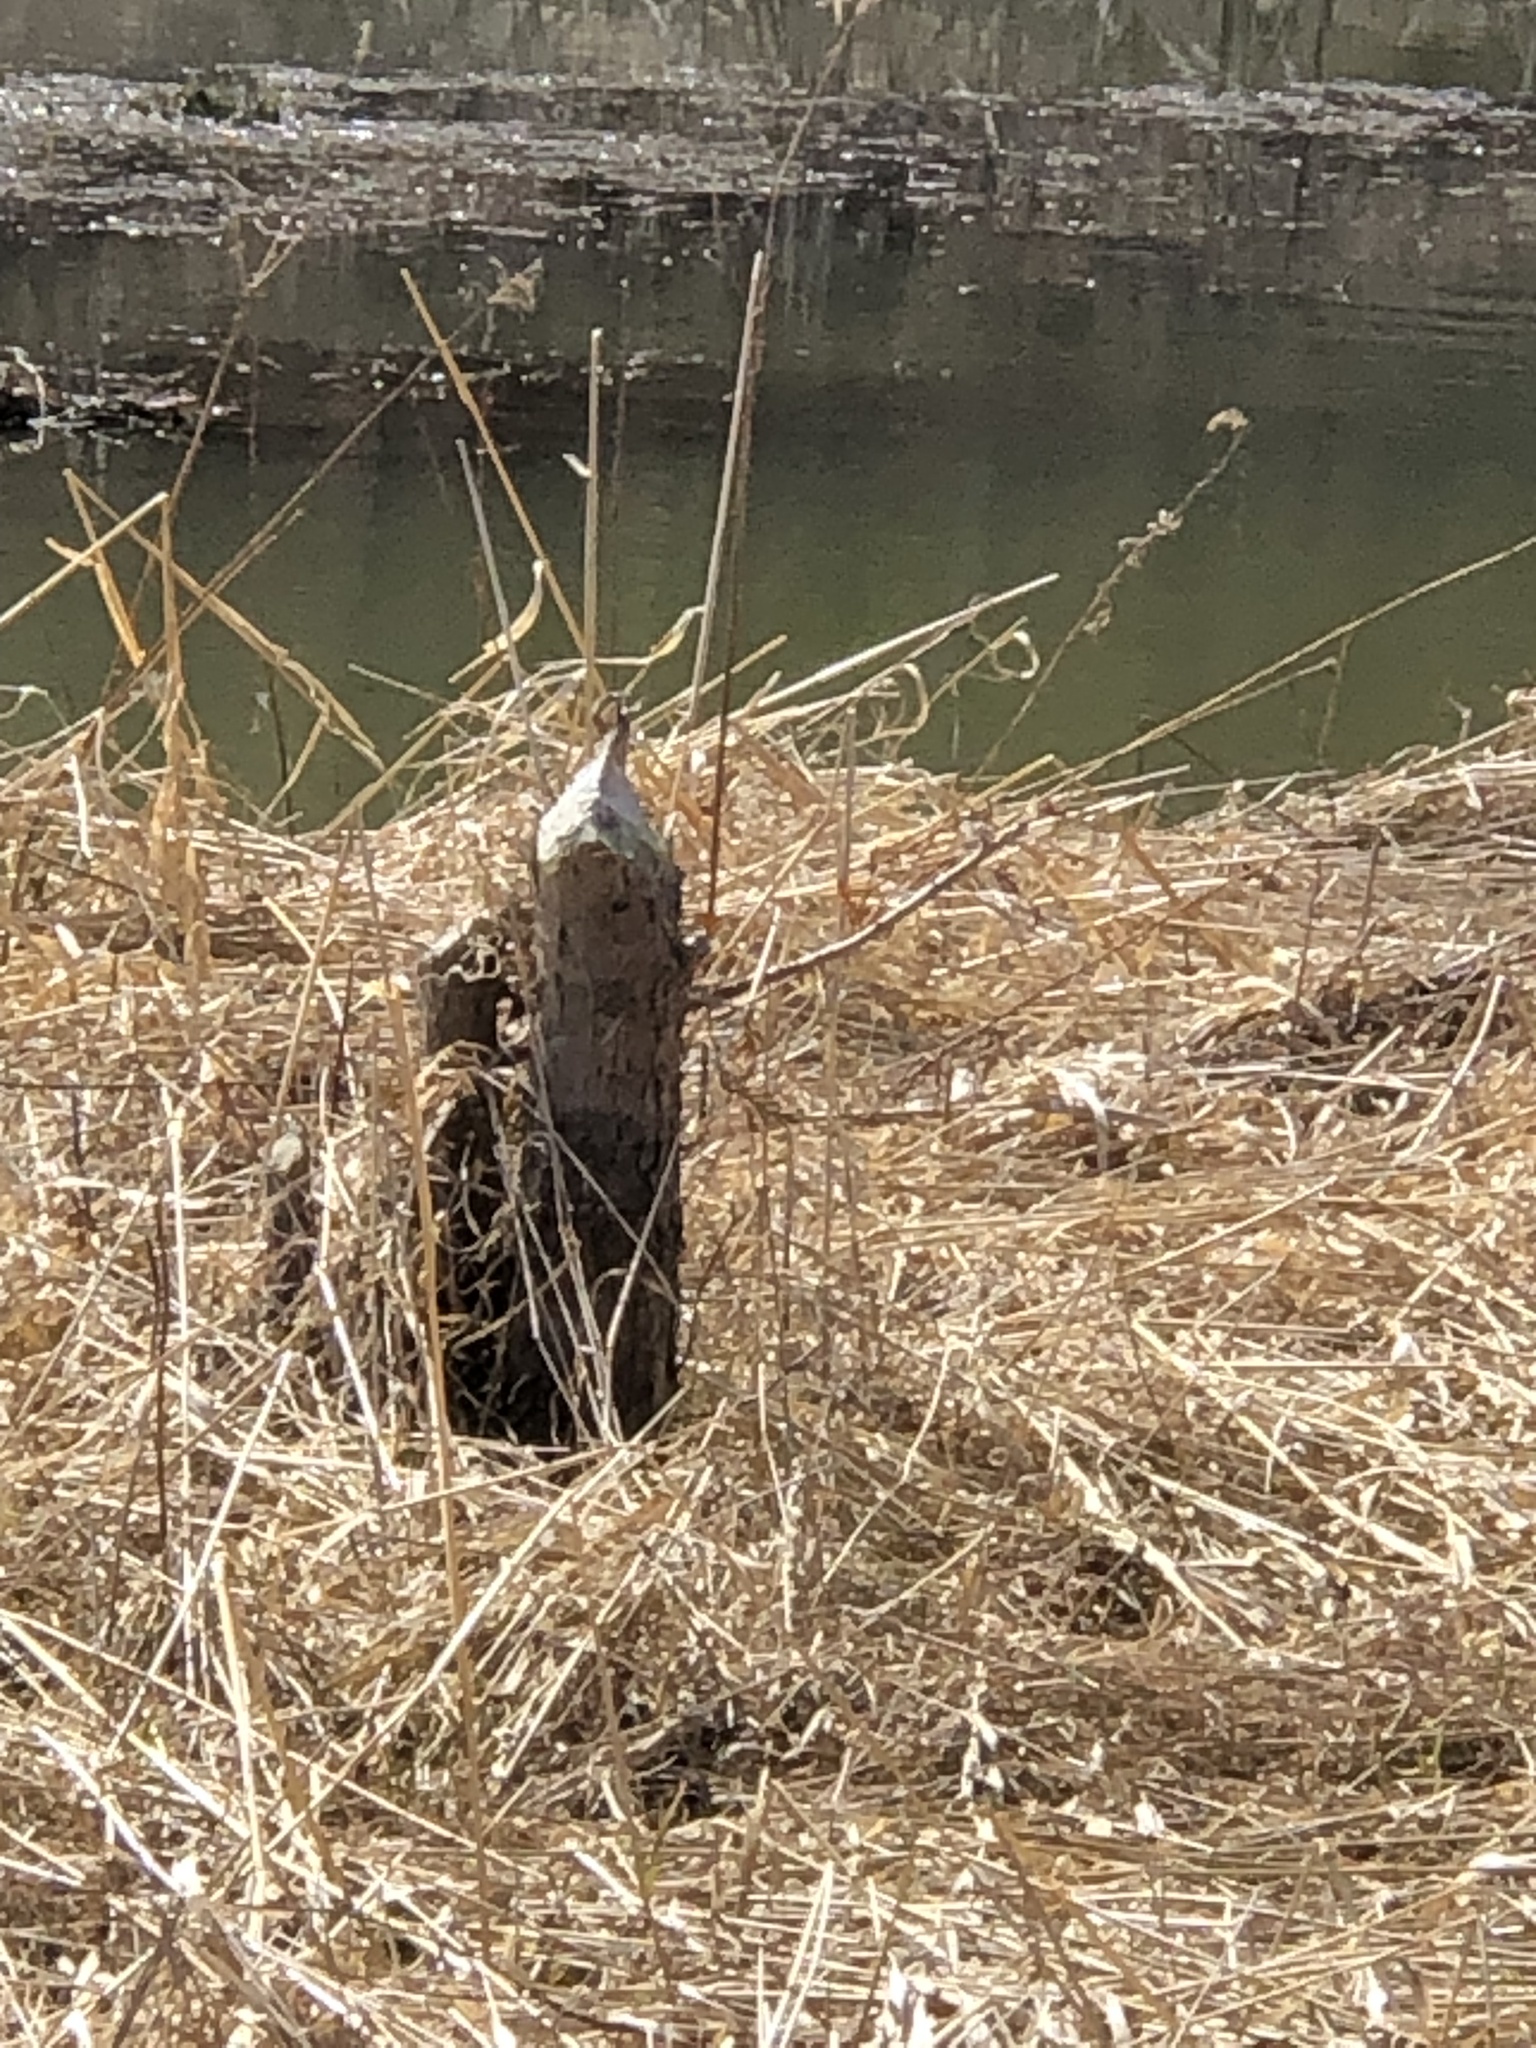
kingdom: Animalia
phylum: Chordata
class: Mammalia
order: Rodentia
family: Castoridae
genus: Castor
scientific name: Castor canadensis
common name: American beaver
